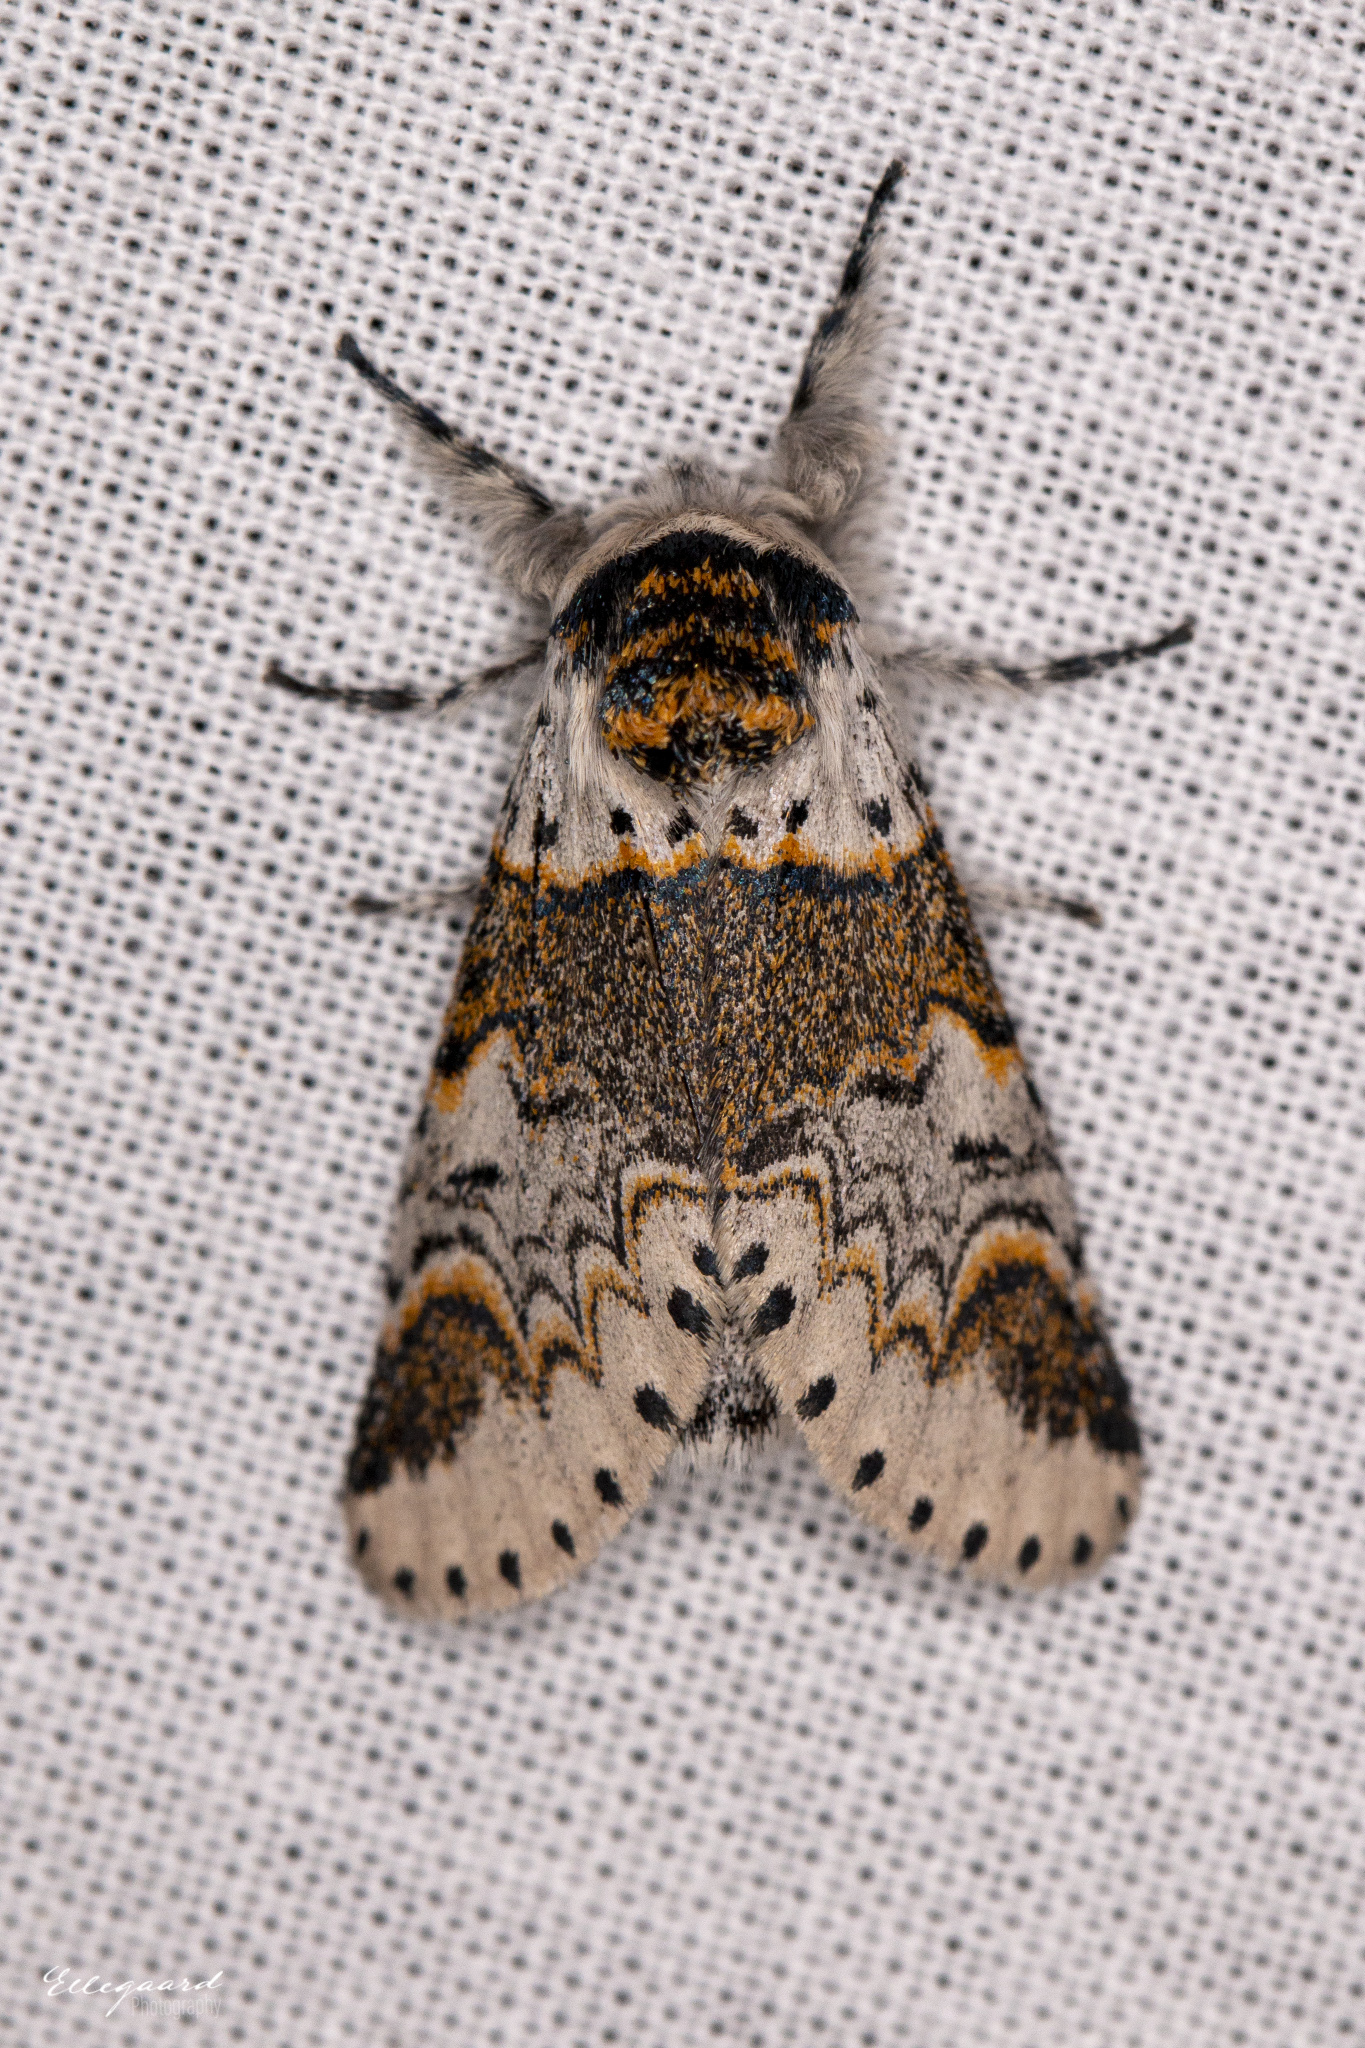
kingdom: Animalia
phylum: Arthropoda
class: Insecta
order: Lepidoptera
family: Notodontidae
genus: Furcula
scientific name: Furcula furcula
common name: Sallow kitten
